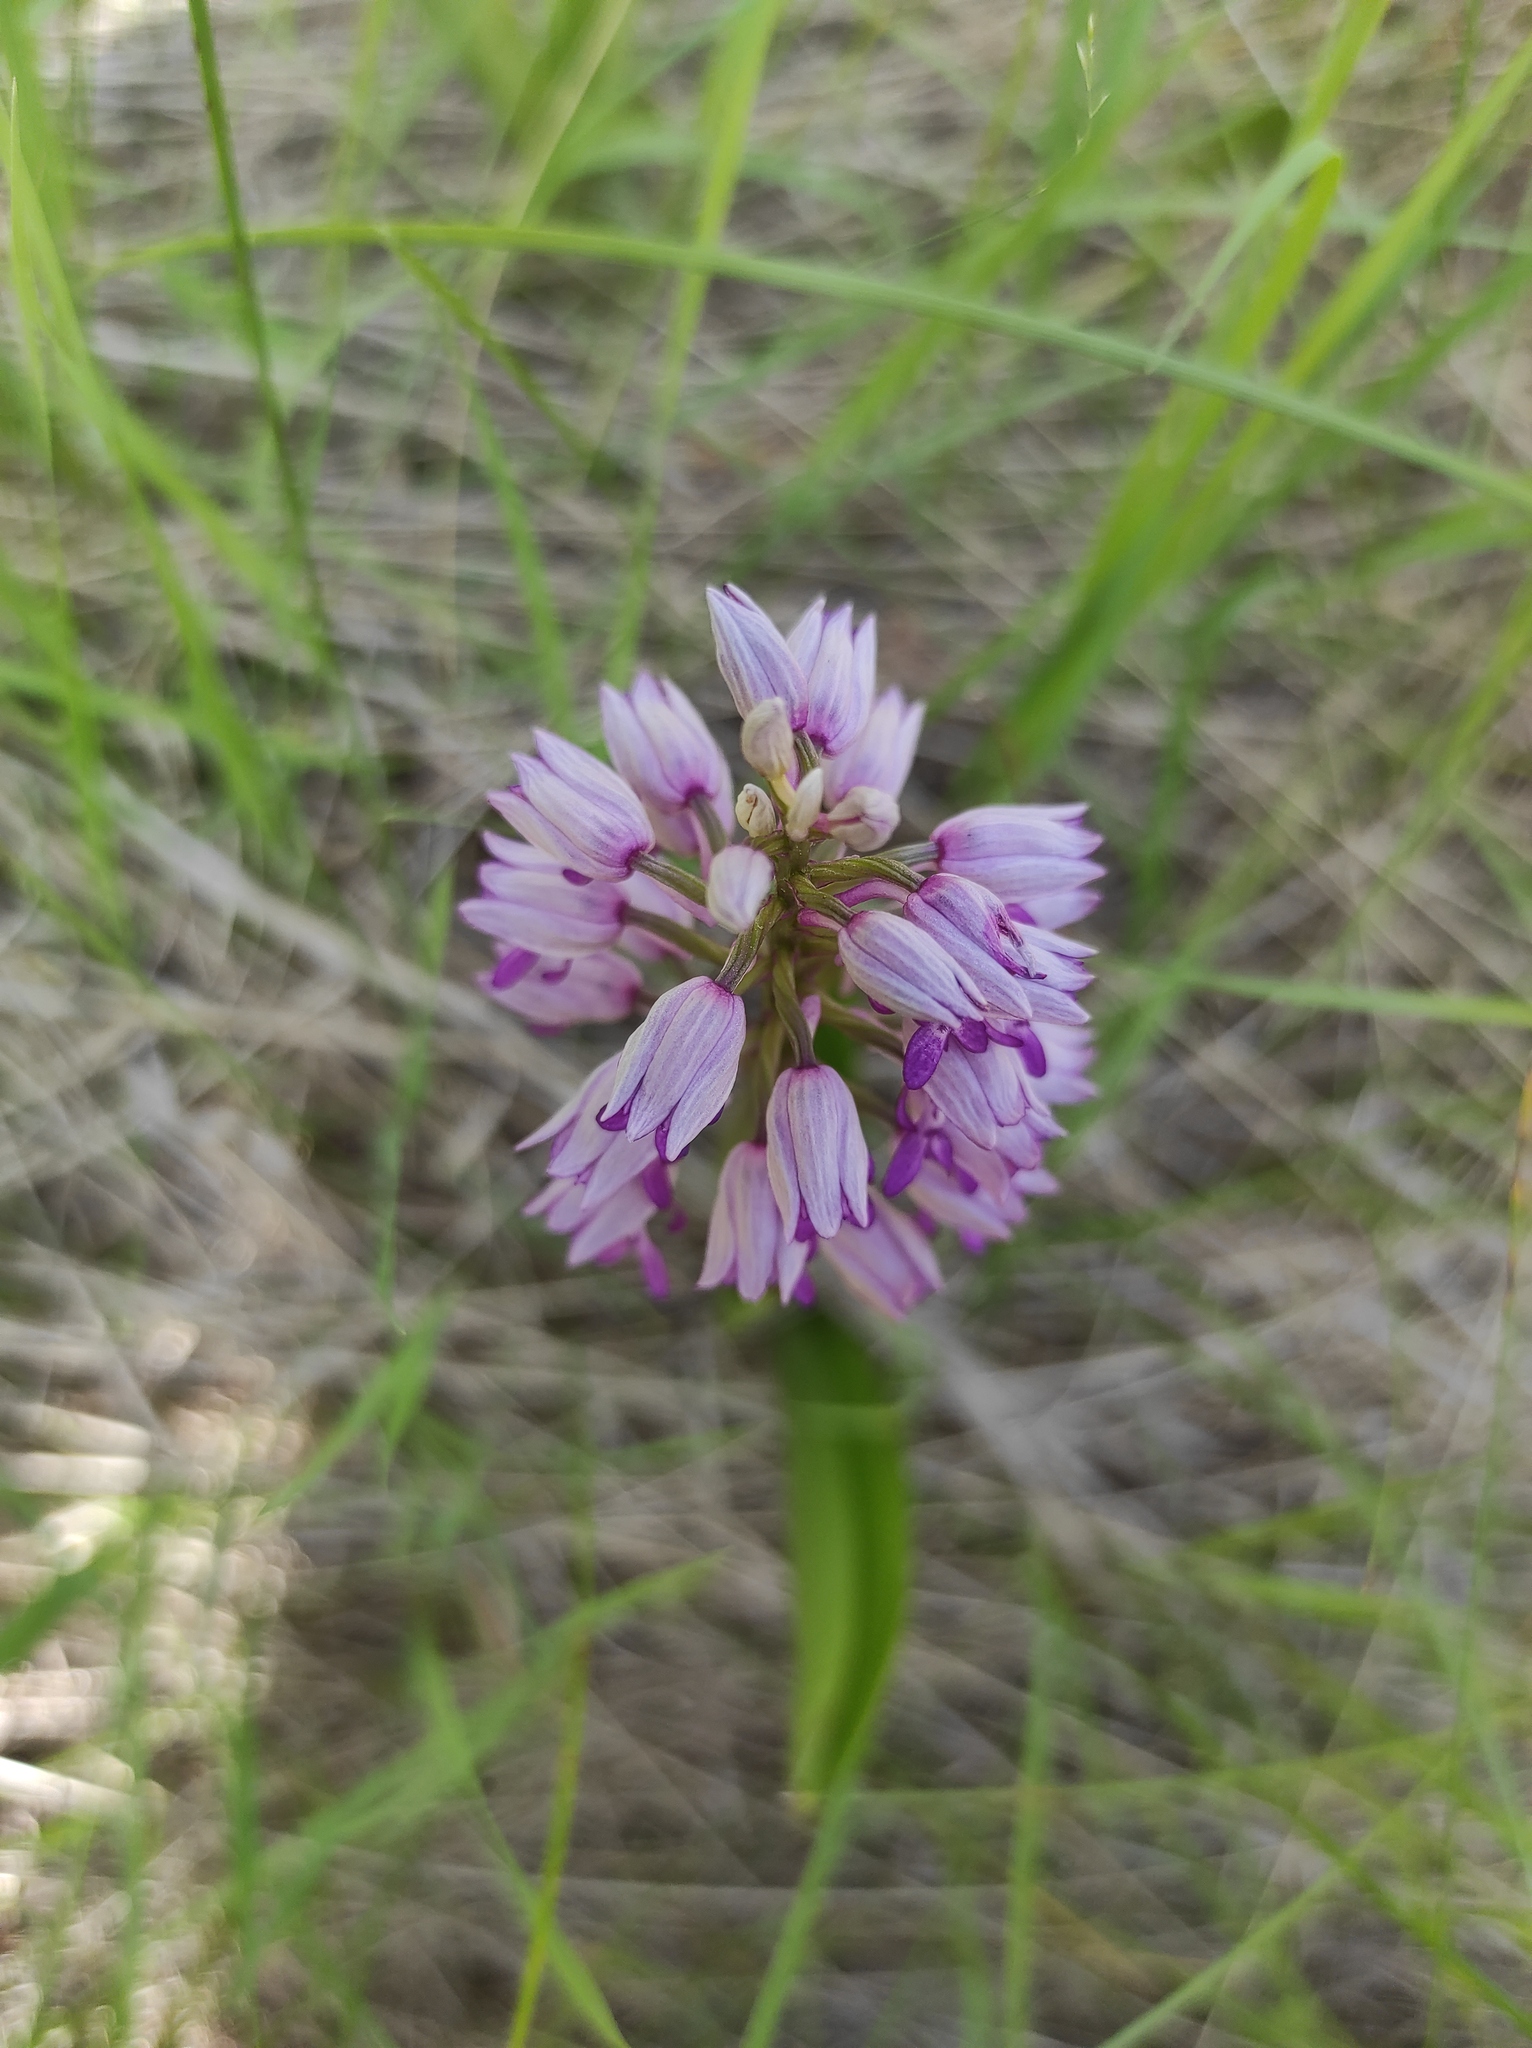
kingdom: Plantae
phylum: Tracheophyta
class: Liliopsida
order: Asparagales
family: Orchidaceae
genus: Orchis
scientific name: Orchis militaris
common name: Military orchid
